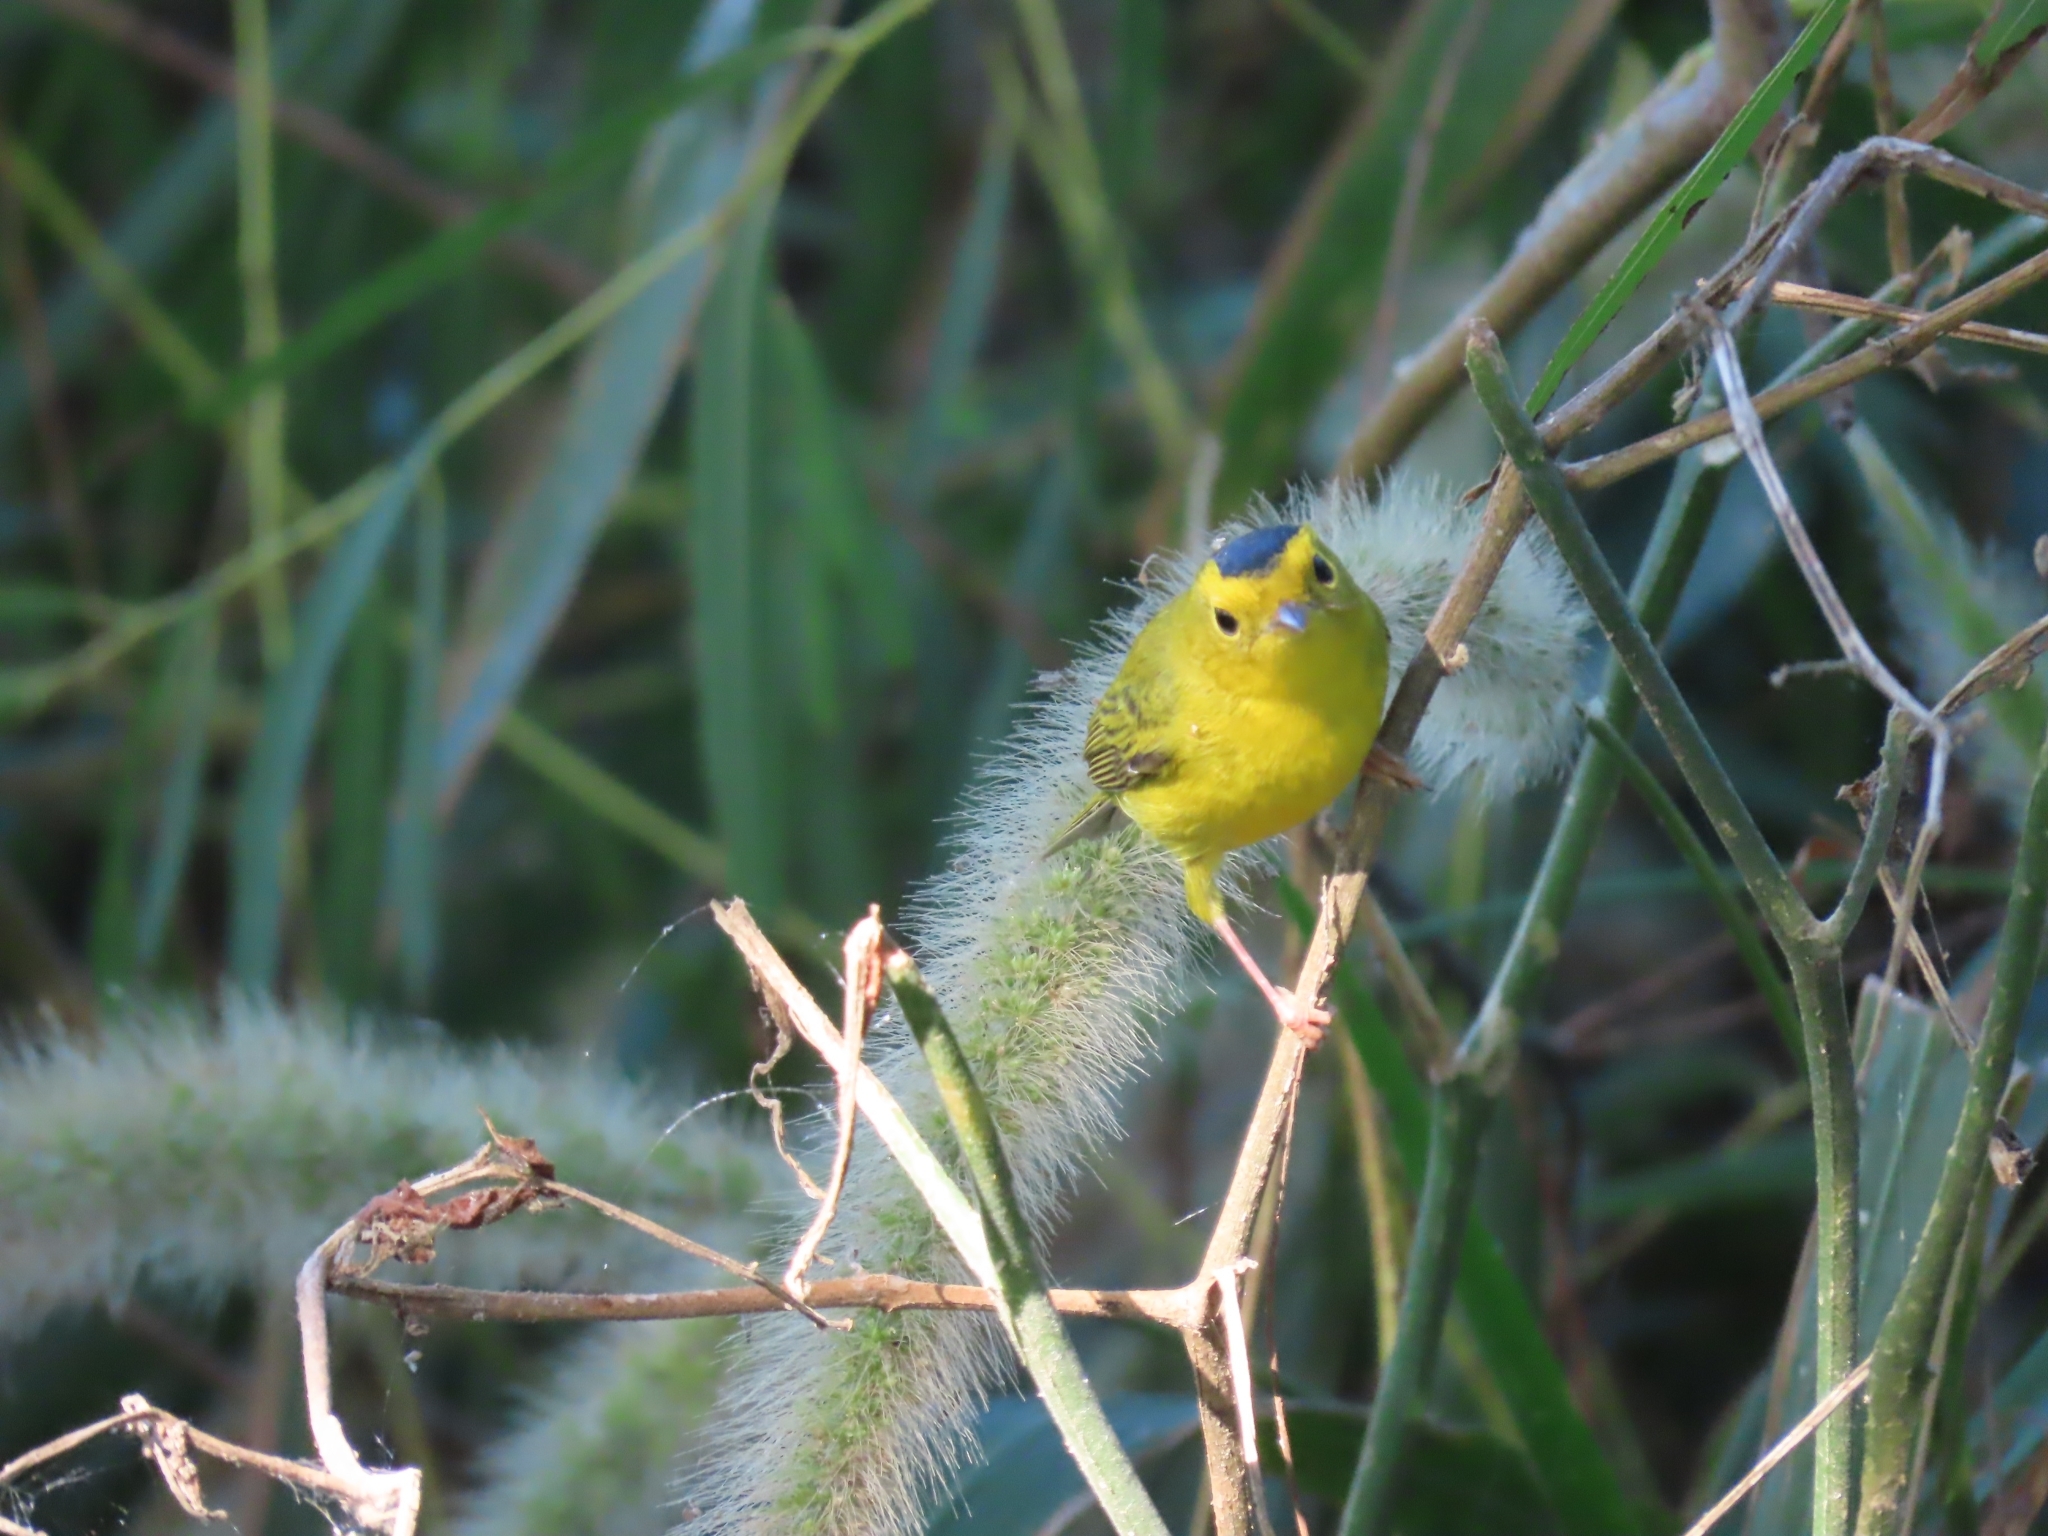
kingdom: Animalia
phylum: Chordata
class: Aves
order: Passeriformes
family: Parulidae
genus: Cardellina
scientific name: Cardellina pusilla
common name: Wilson's warbler
